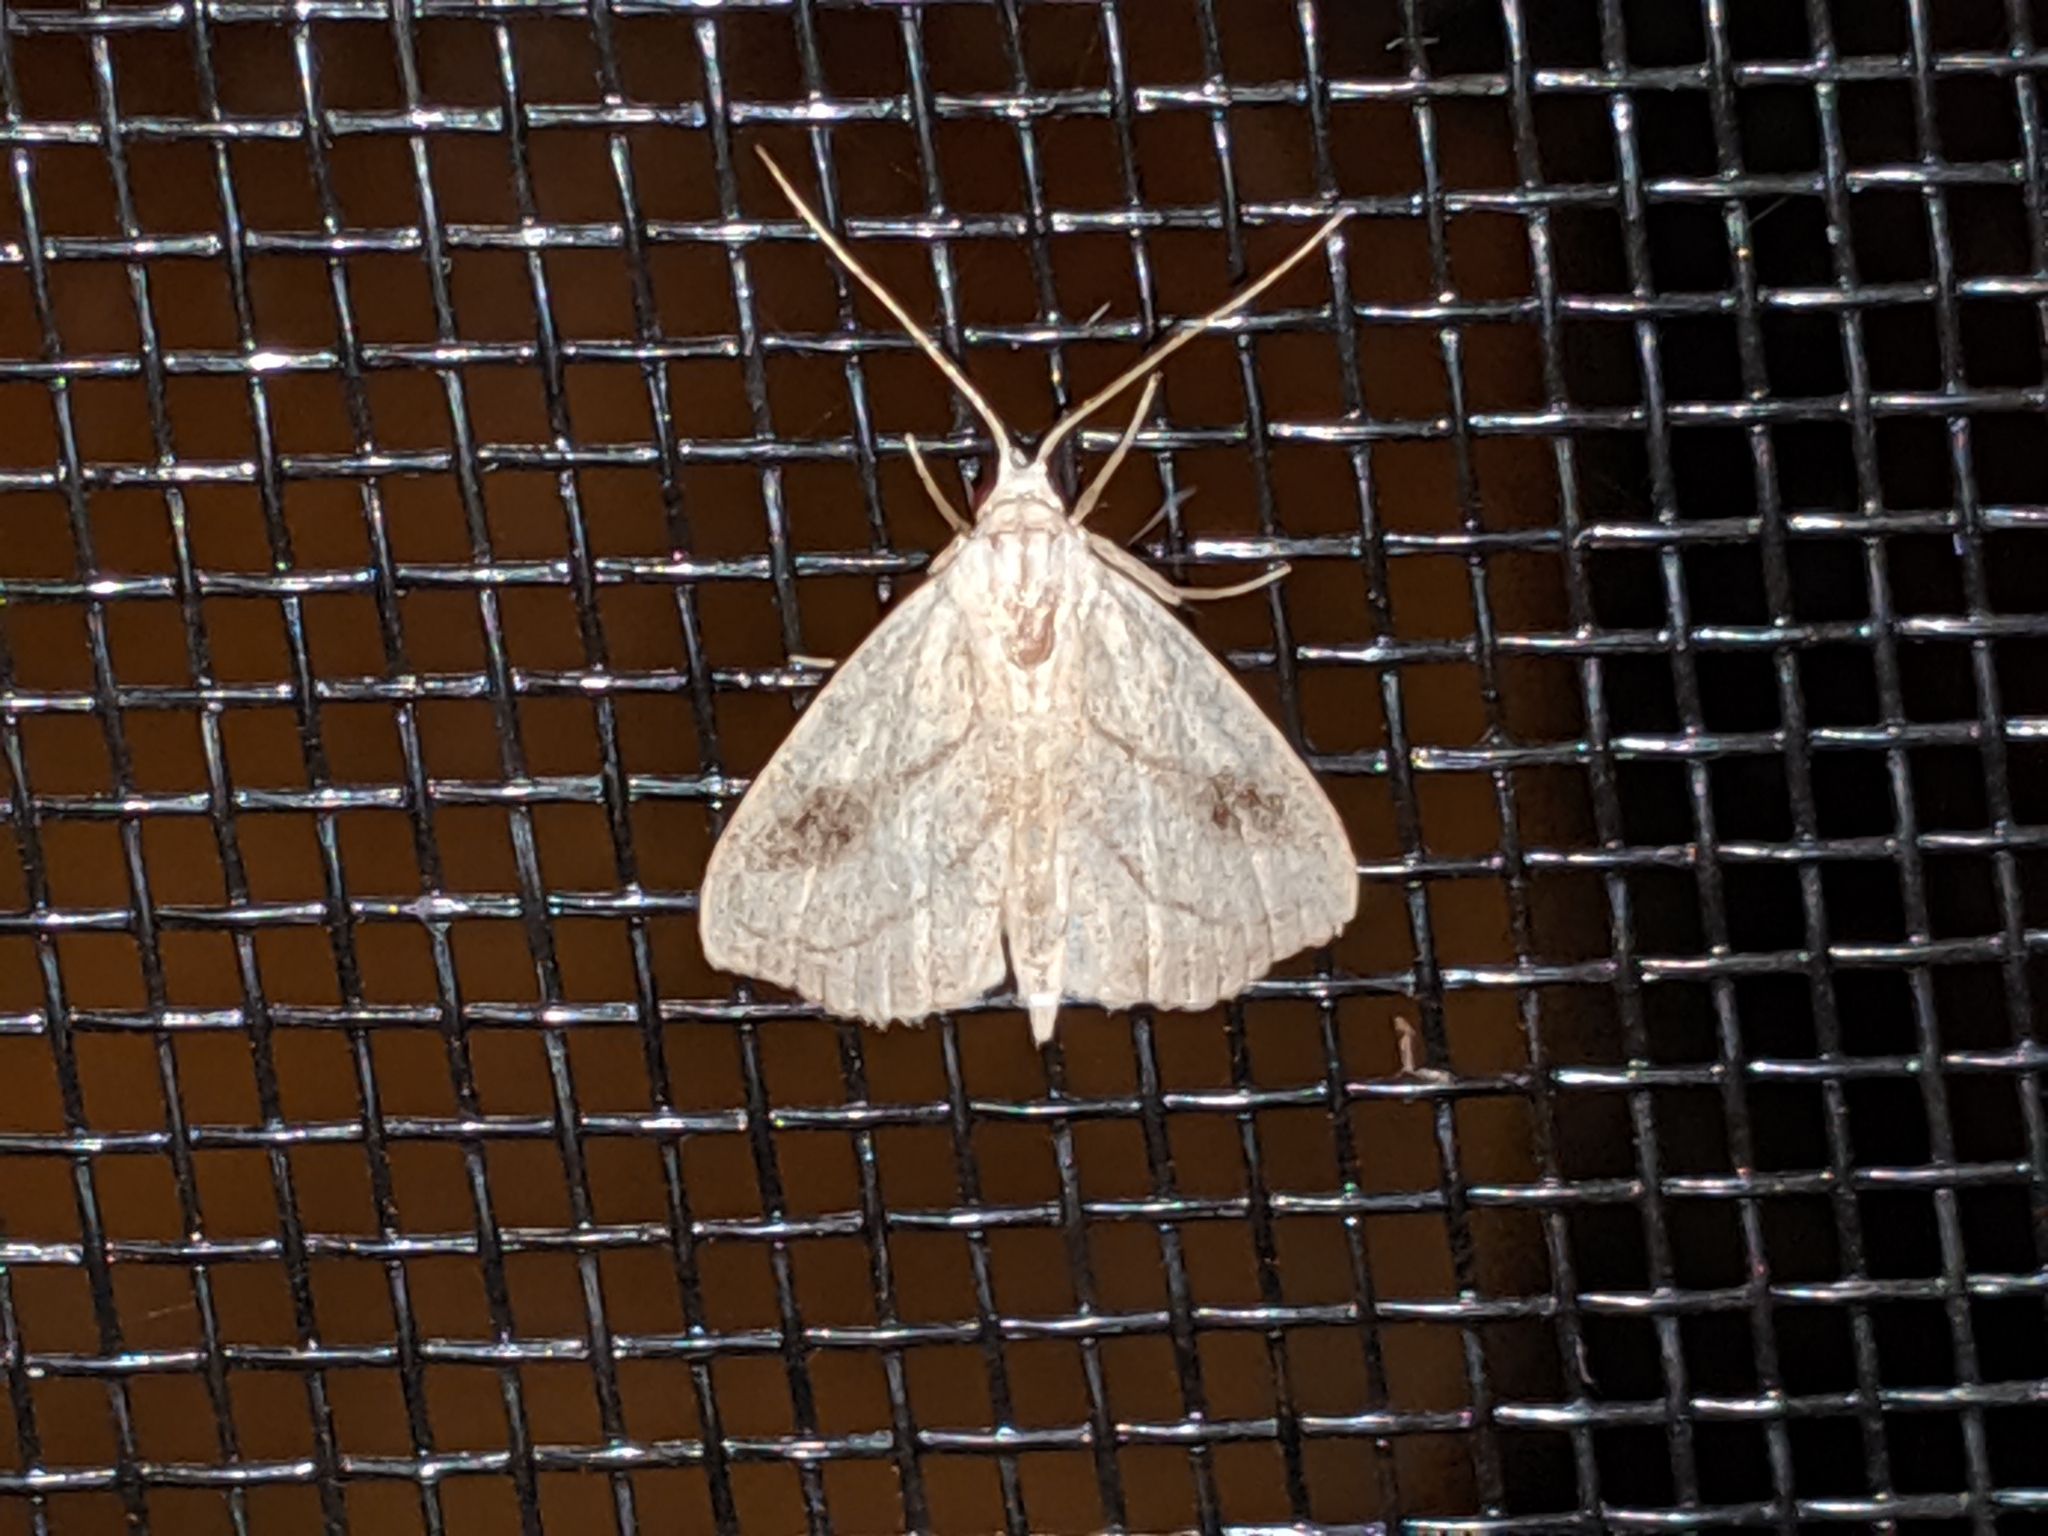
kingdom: Animalia
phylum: Arthropoda
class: Insecta
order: Lepidoptera
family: Erebidae
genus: Rivula
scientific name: Rivula propinqualis
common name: Spotted grass moth
